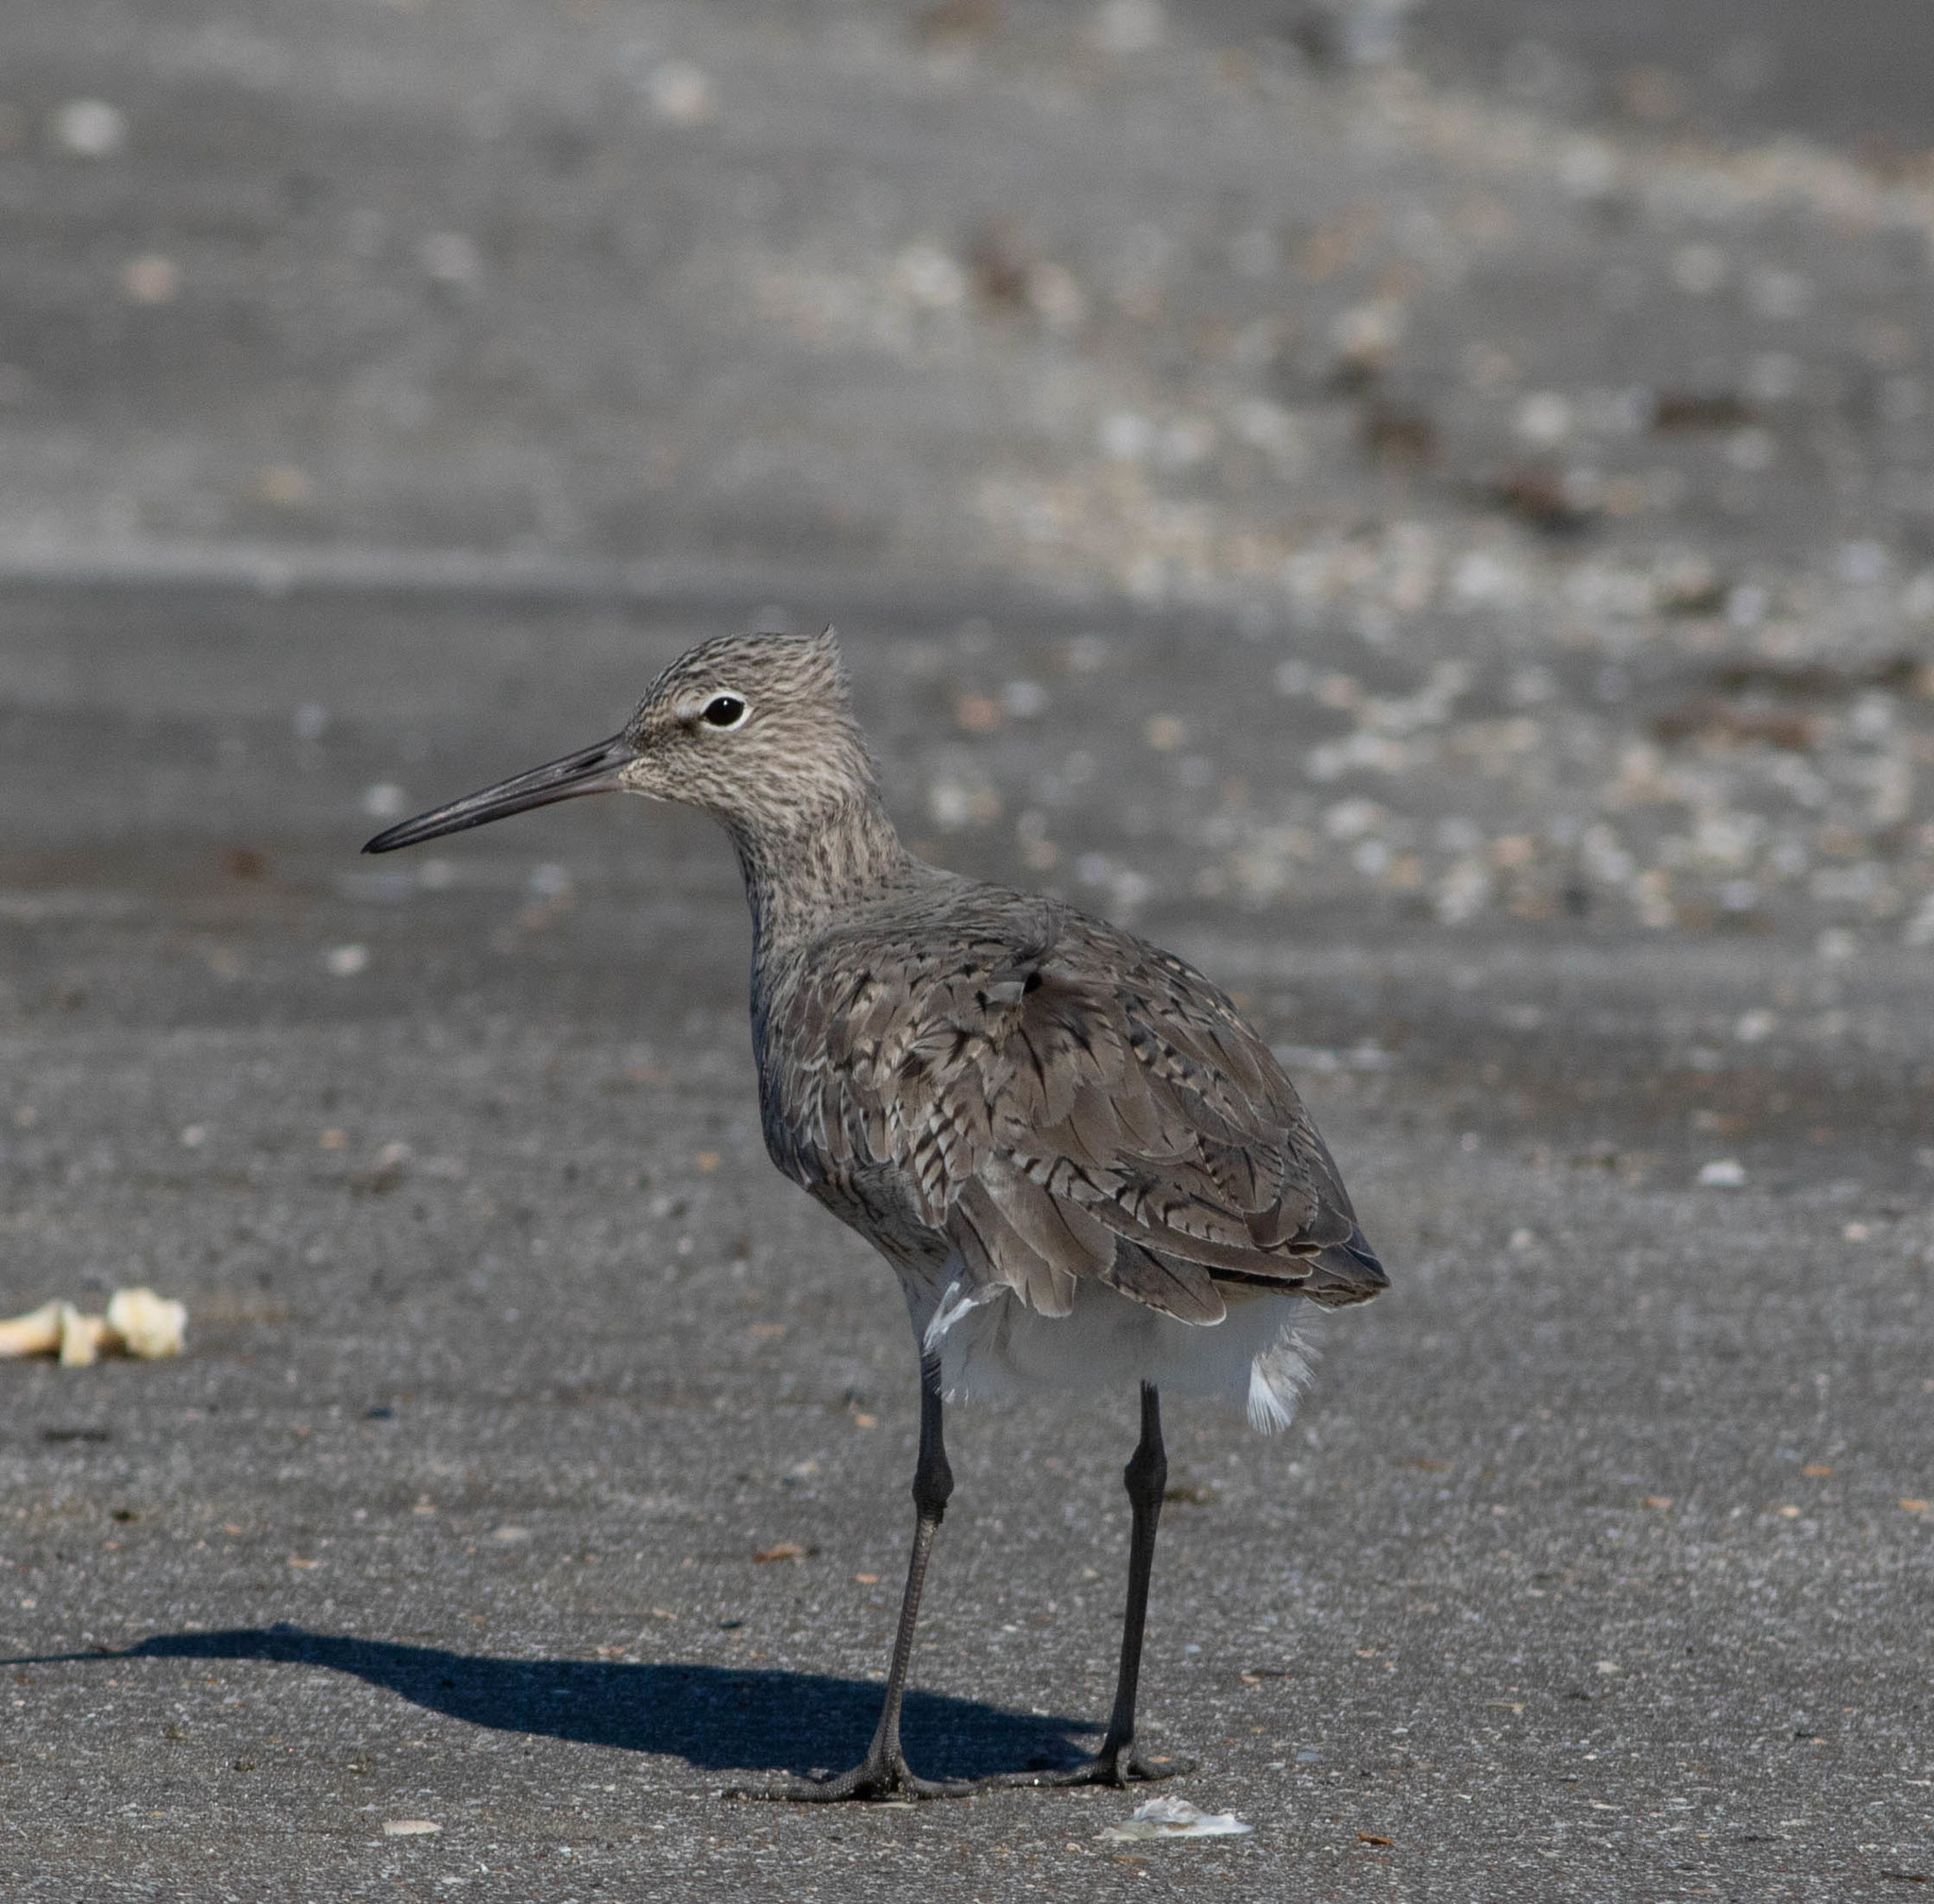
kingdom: Animalia
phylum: Chordata
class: Aves
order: Charadriiformes
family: Scolopacidae
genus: Tringa
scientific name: Tringa semipalmata
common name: Willet
